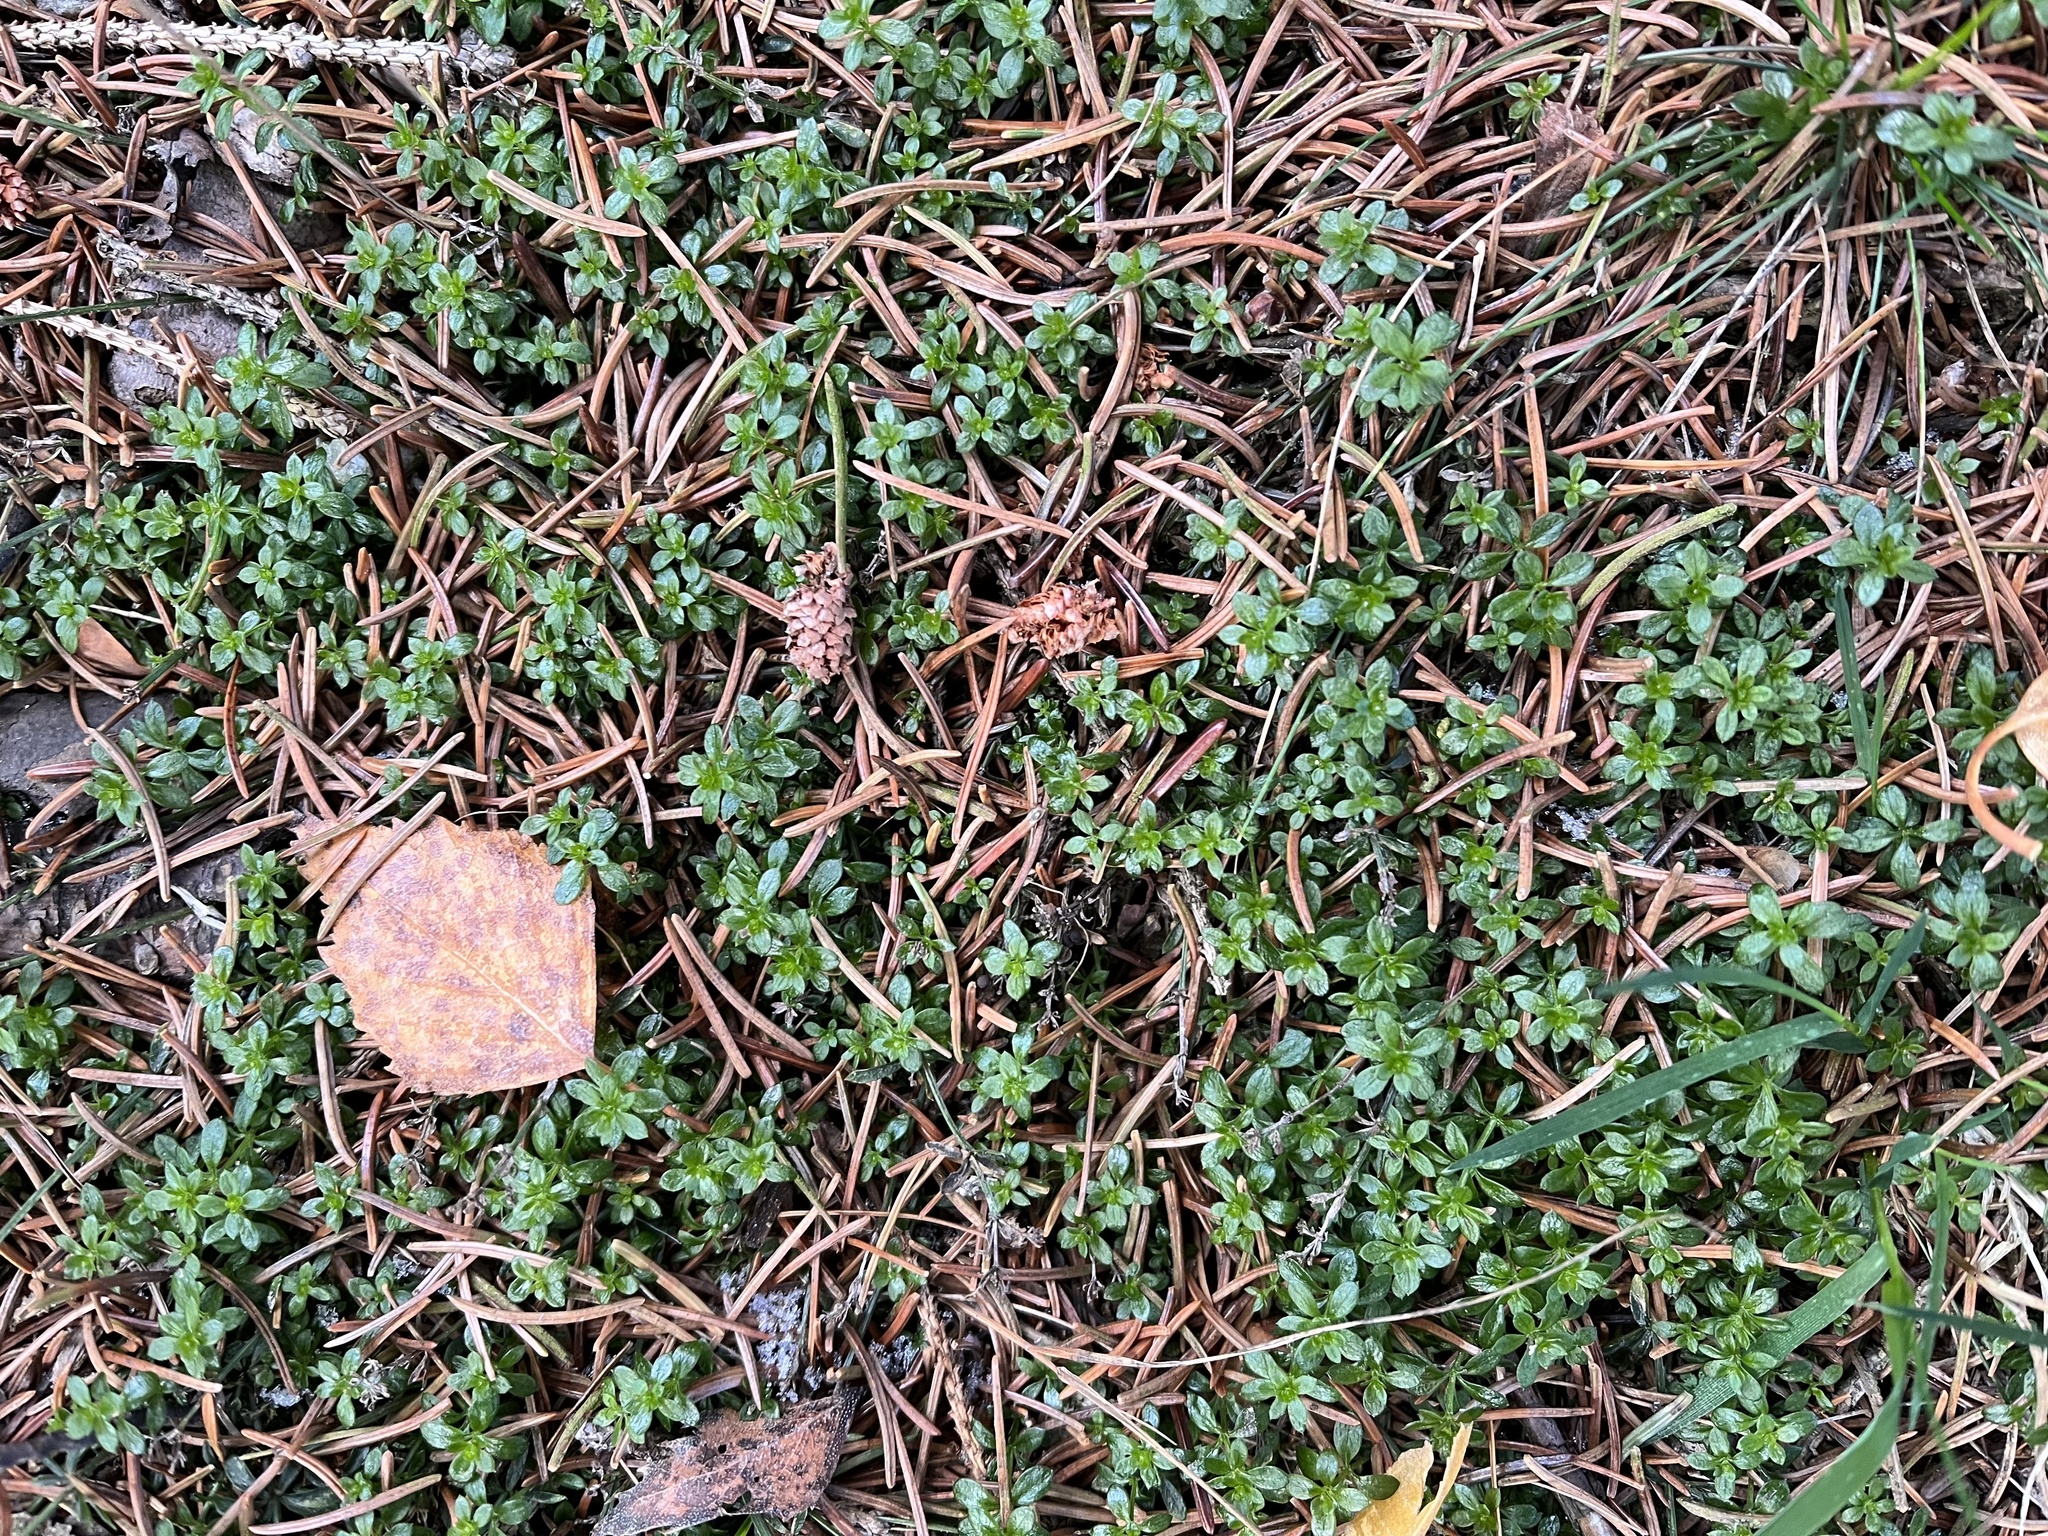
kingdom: Plantae
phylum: Tracheophyta
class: Magnoliopsida
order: Gentianales
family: Rubiaceae
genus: Galium
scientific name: Galium saxatile
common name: Heath bedstraw
